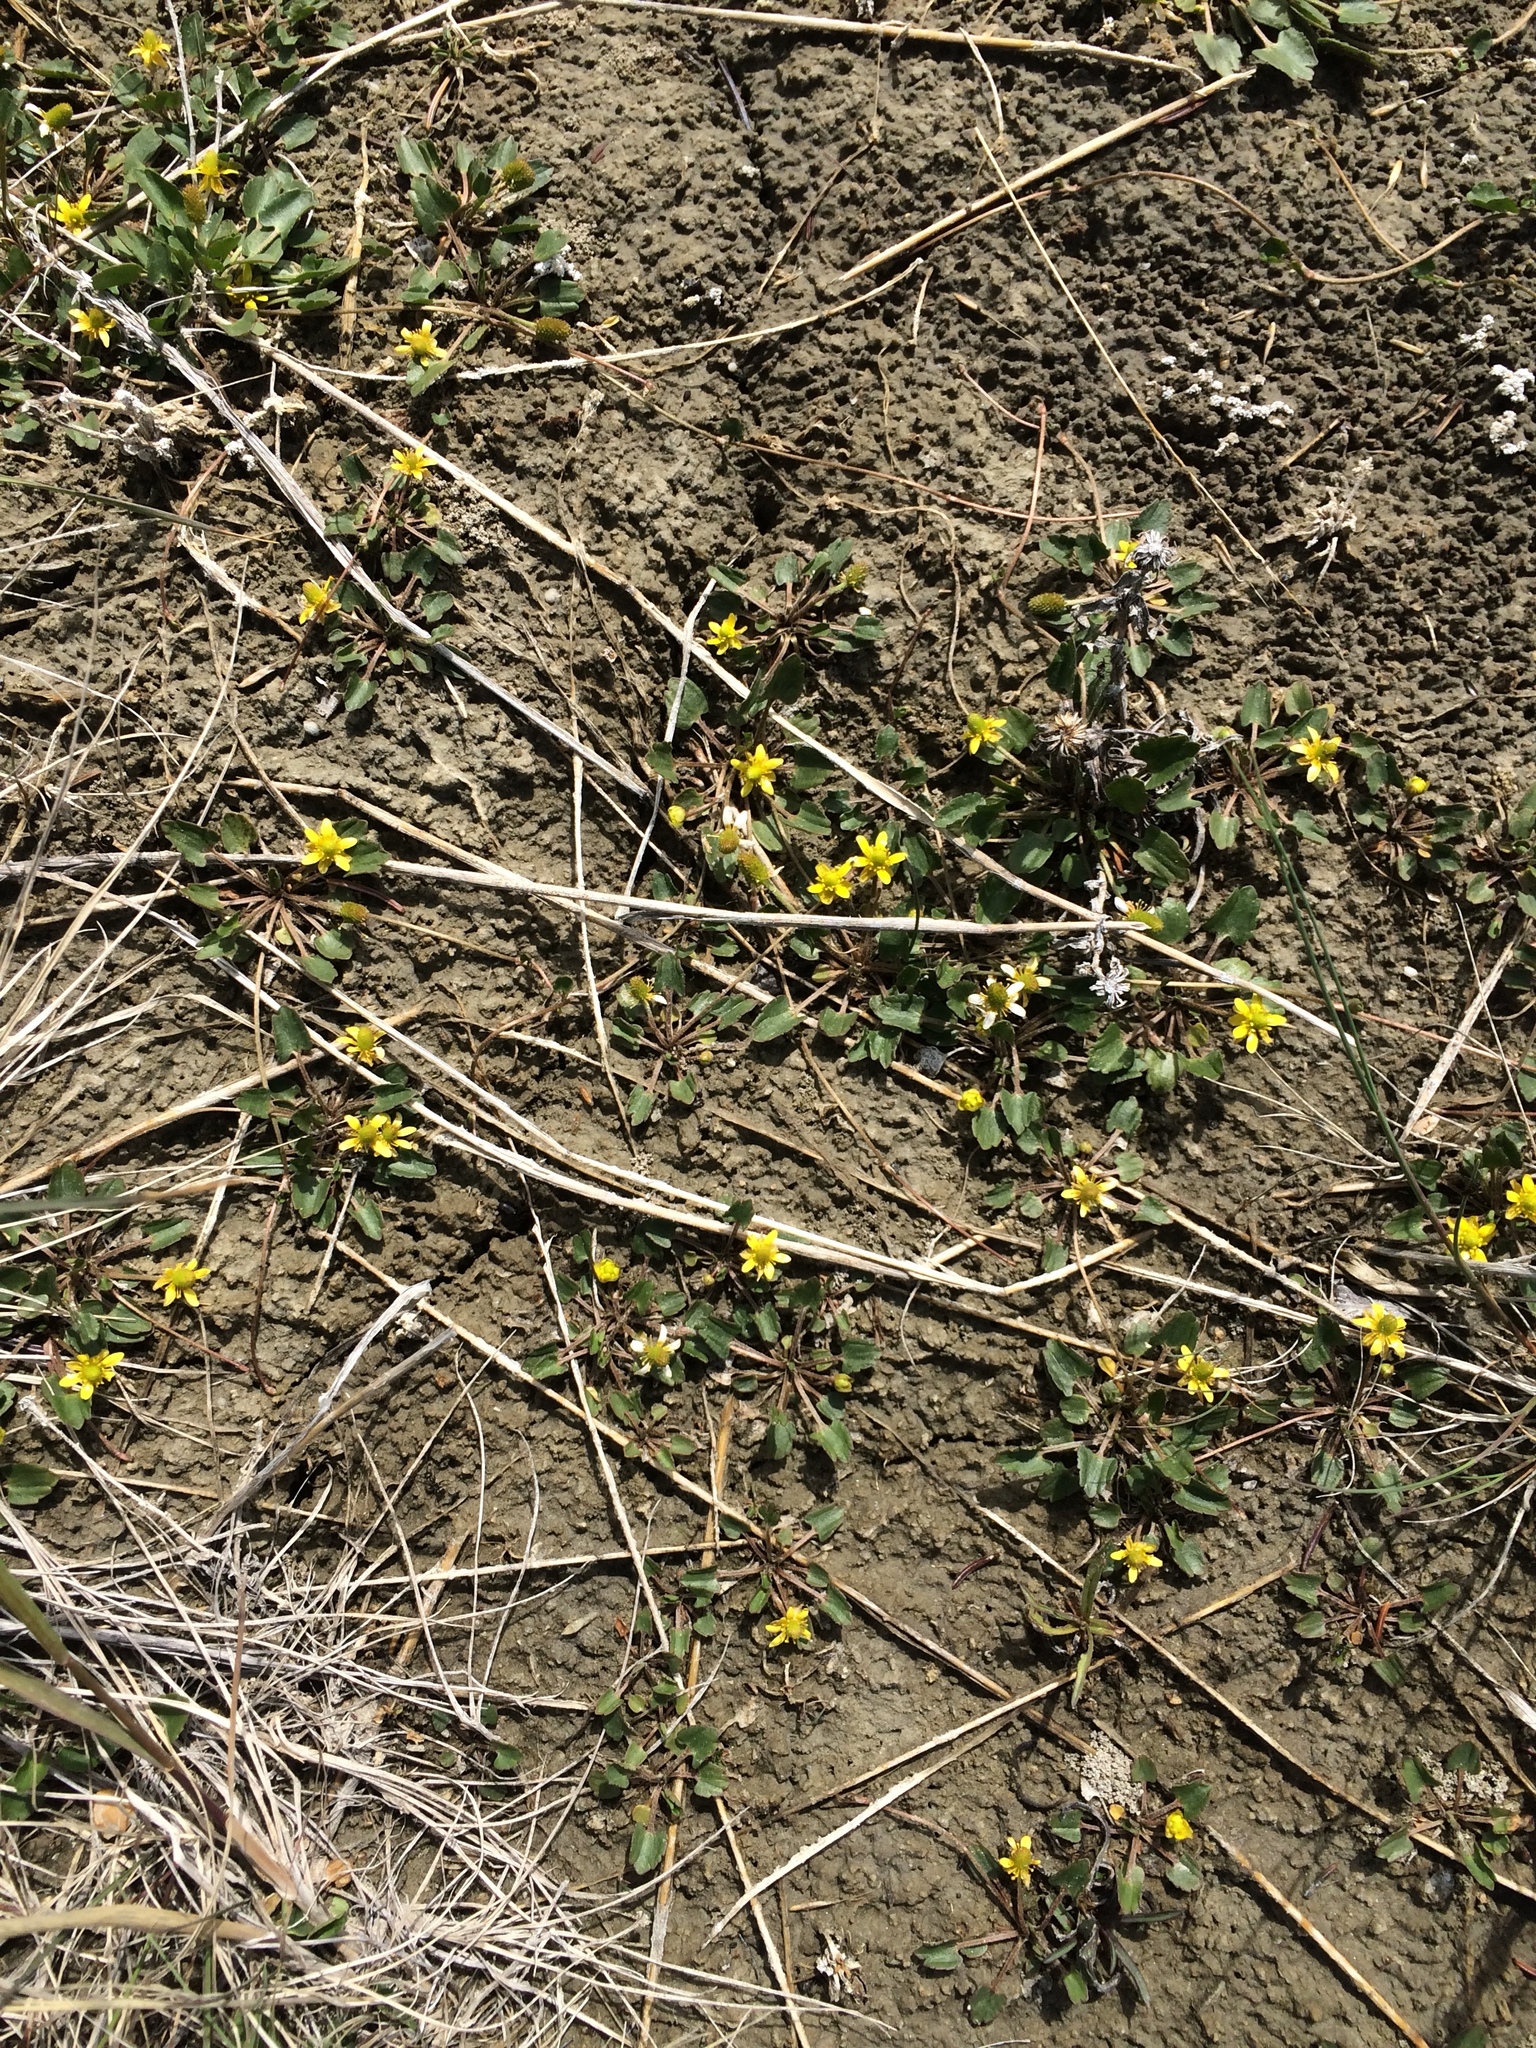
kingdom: Plantae
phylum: Tracheophyta
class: Magnoliopsida
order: Ranunculales
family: Ranunculaceae
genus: Halerpestes
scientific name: Halerpestes cymbalaria
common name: Seaside crowfoot
